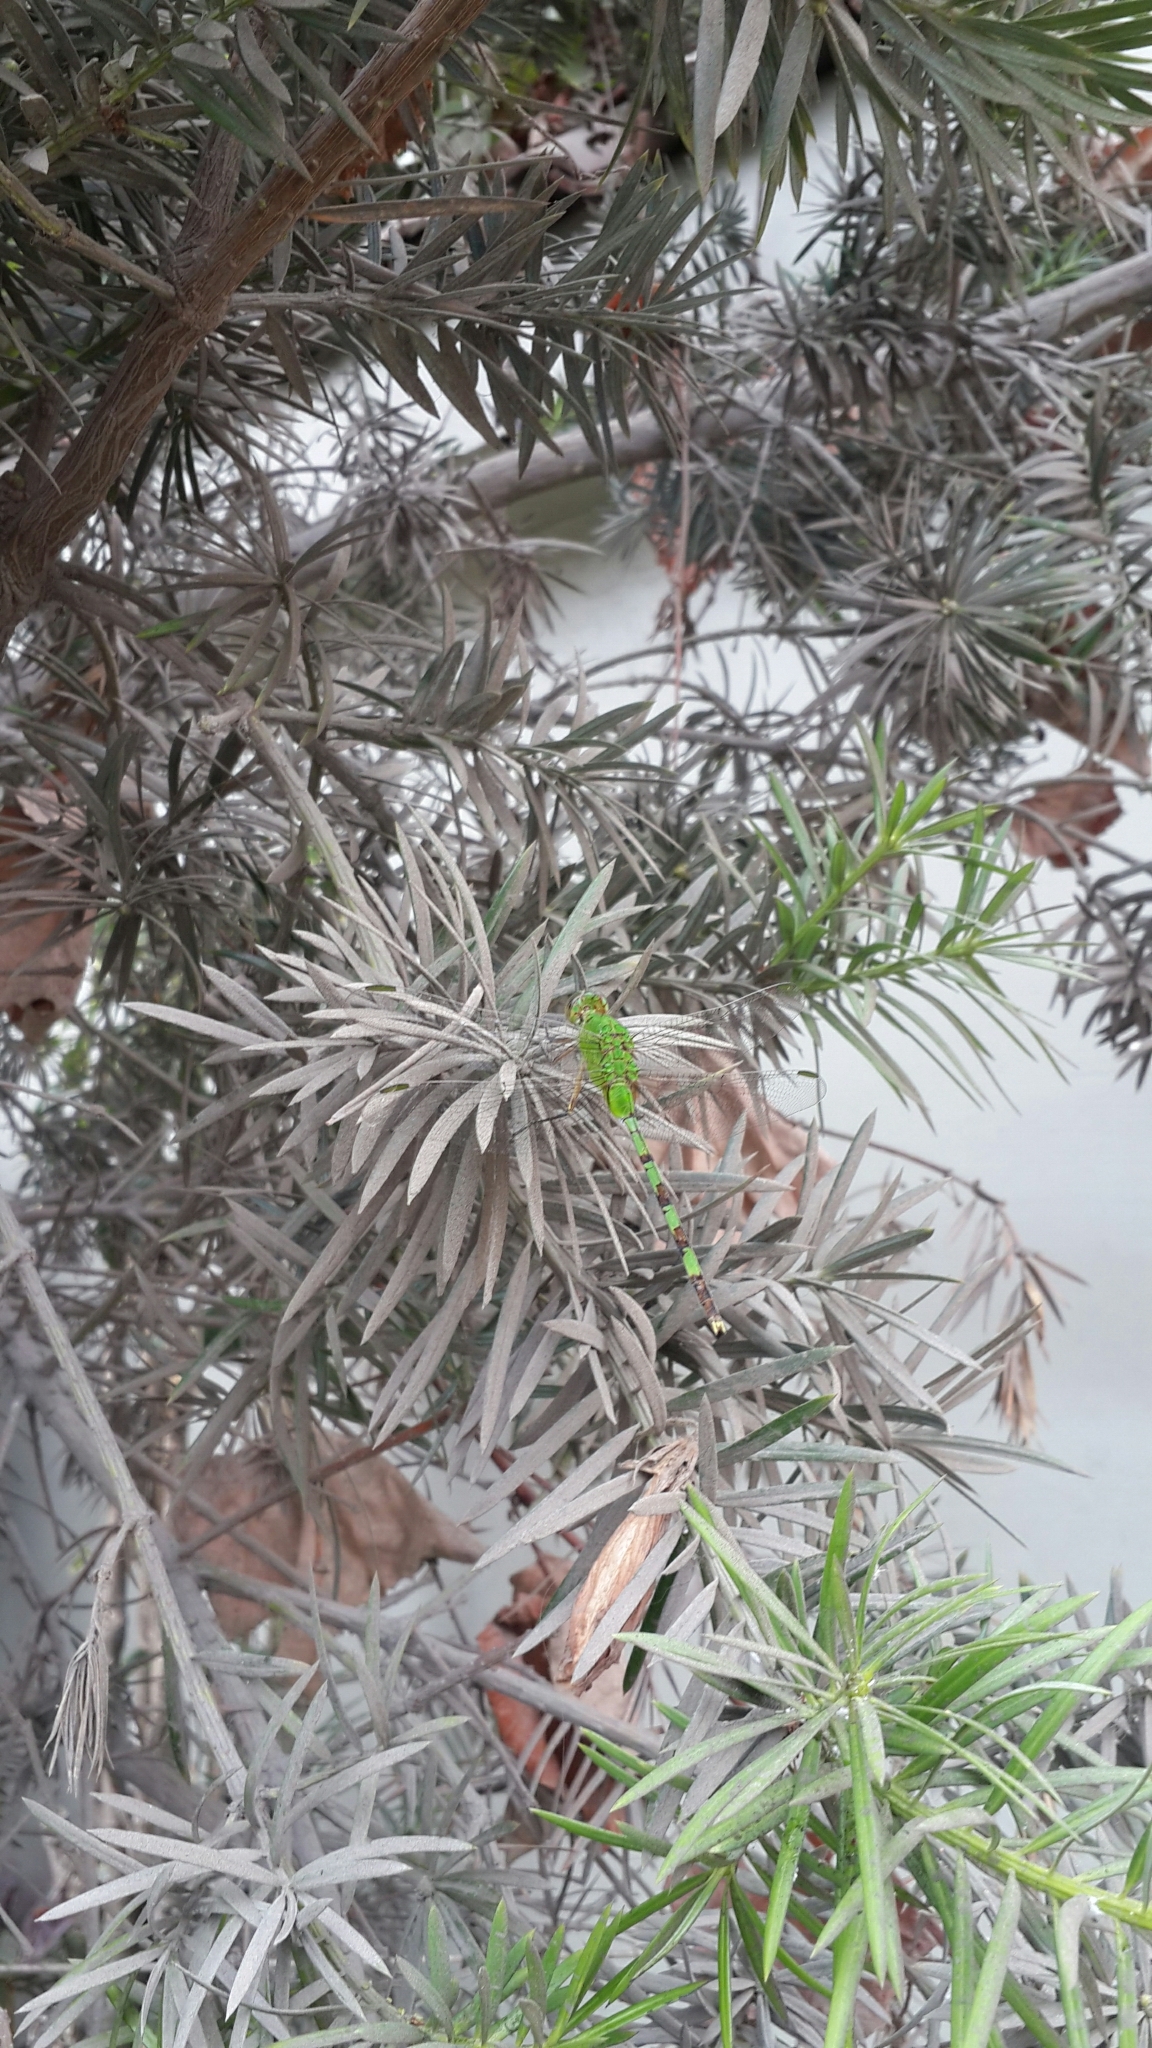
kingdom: Animalia
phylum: Arthropoda
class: Insecta
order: Odonata
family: Libellulidae
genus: Erythemis
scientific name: Erythemis vesiculosa
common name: Great pondhawk
